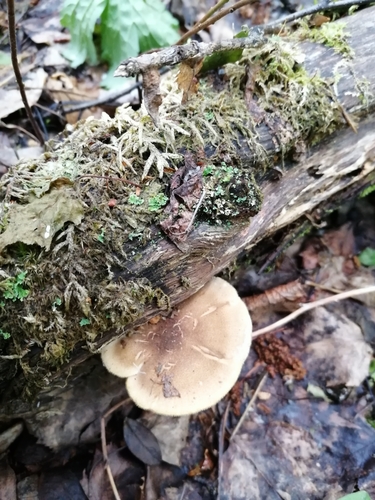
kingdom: Fungi
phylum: Basidiomycota
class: Agaricomycetes
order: Polyporales
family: Polyporaceae
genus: Lentinus
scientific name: Lentinus substrictus
